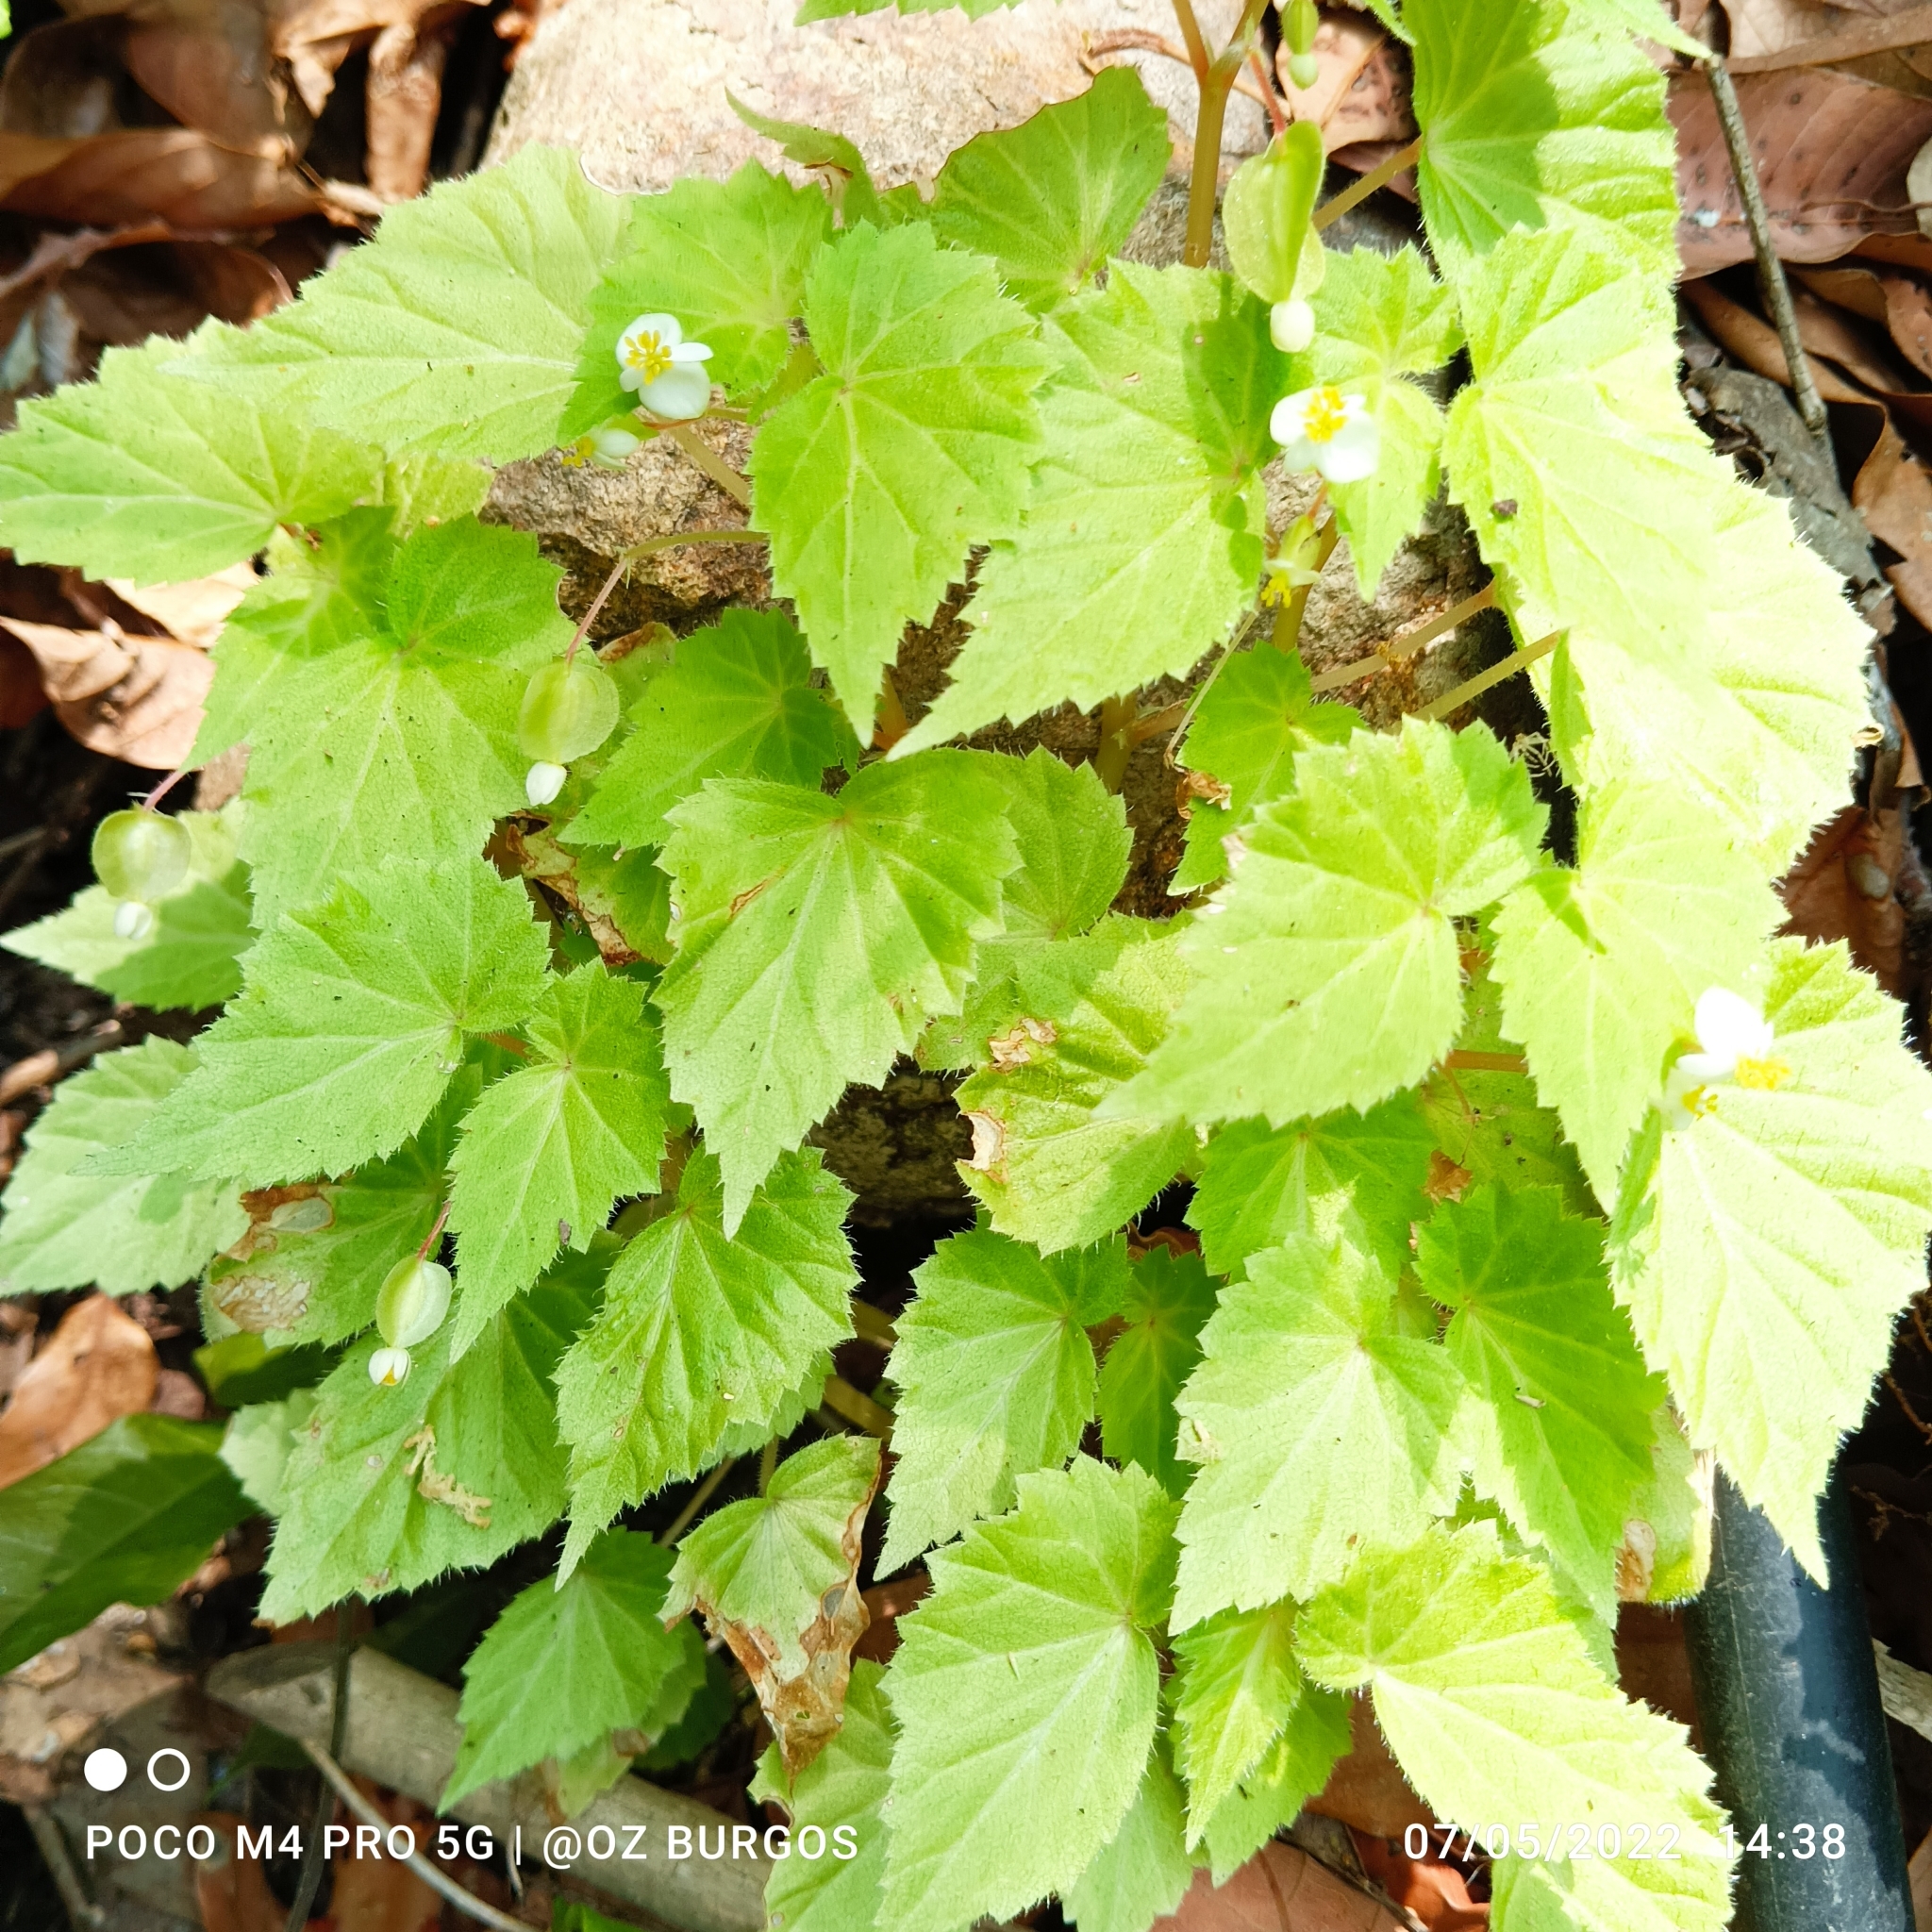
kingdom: Plantae
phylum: Tracheophyta
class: Magnoliopsida
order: Cucurbitales
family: Begoniaceae
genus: Begonia
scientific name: Begonia wallichiana
